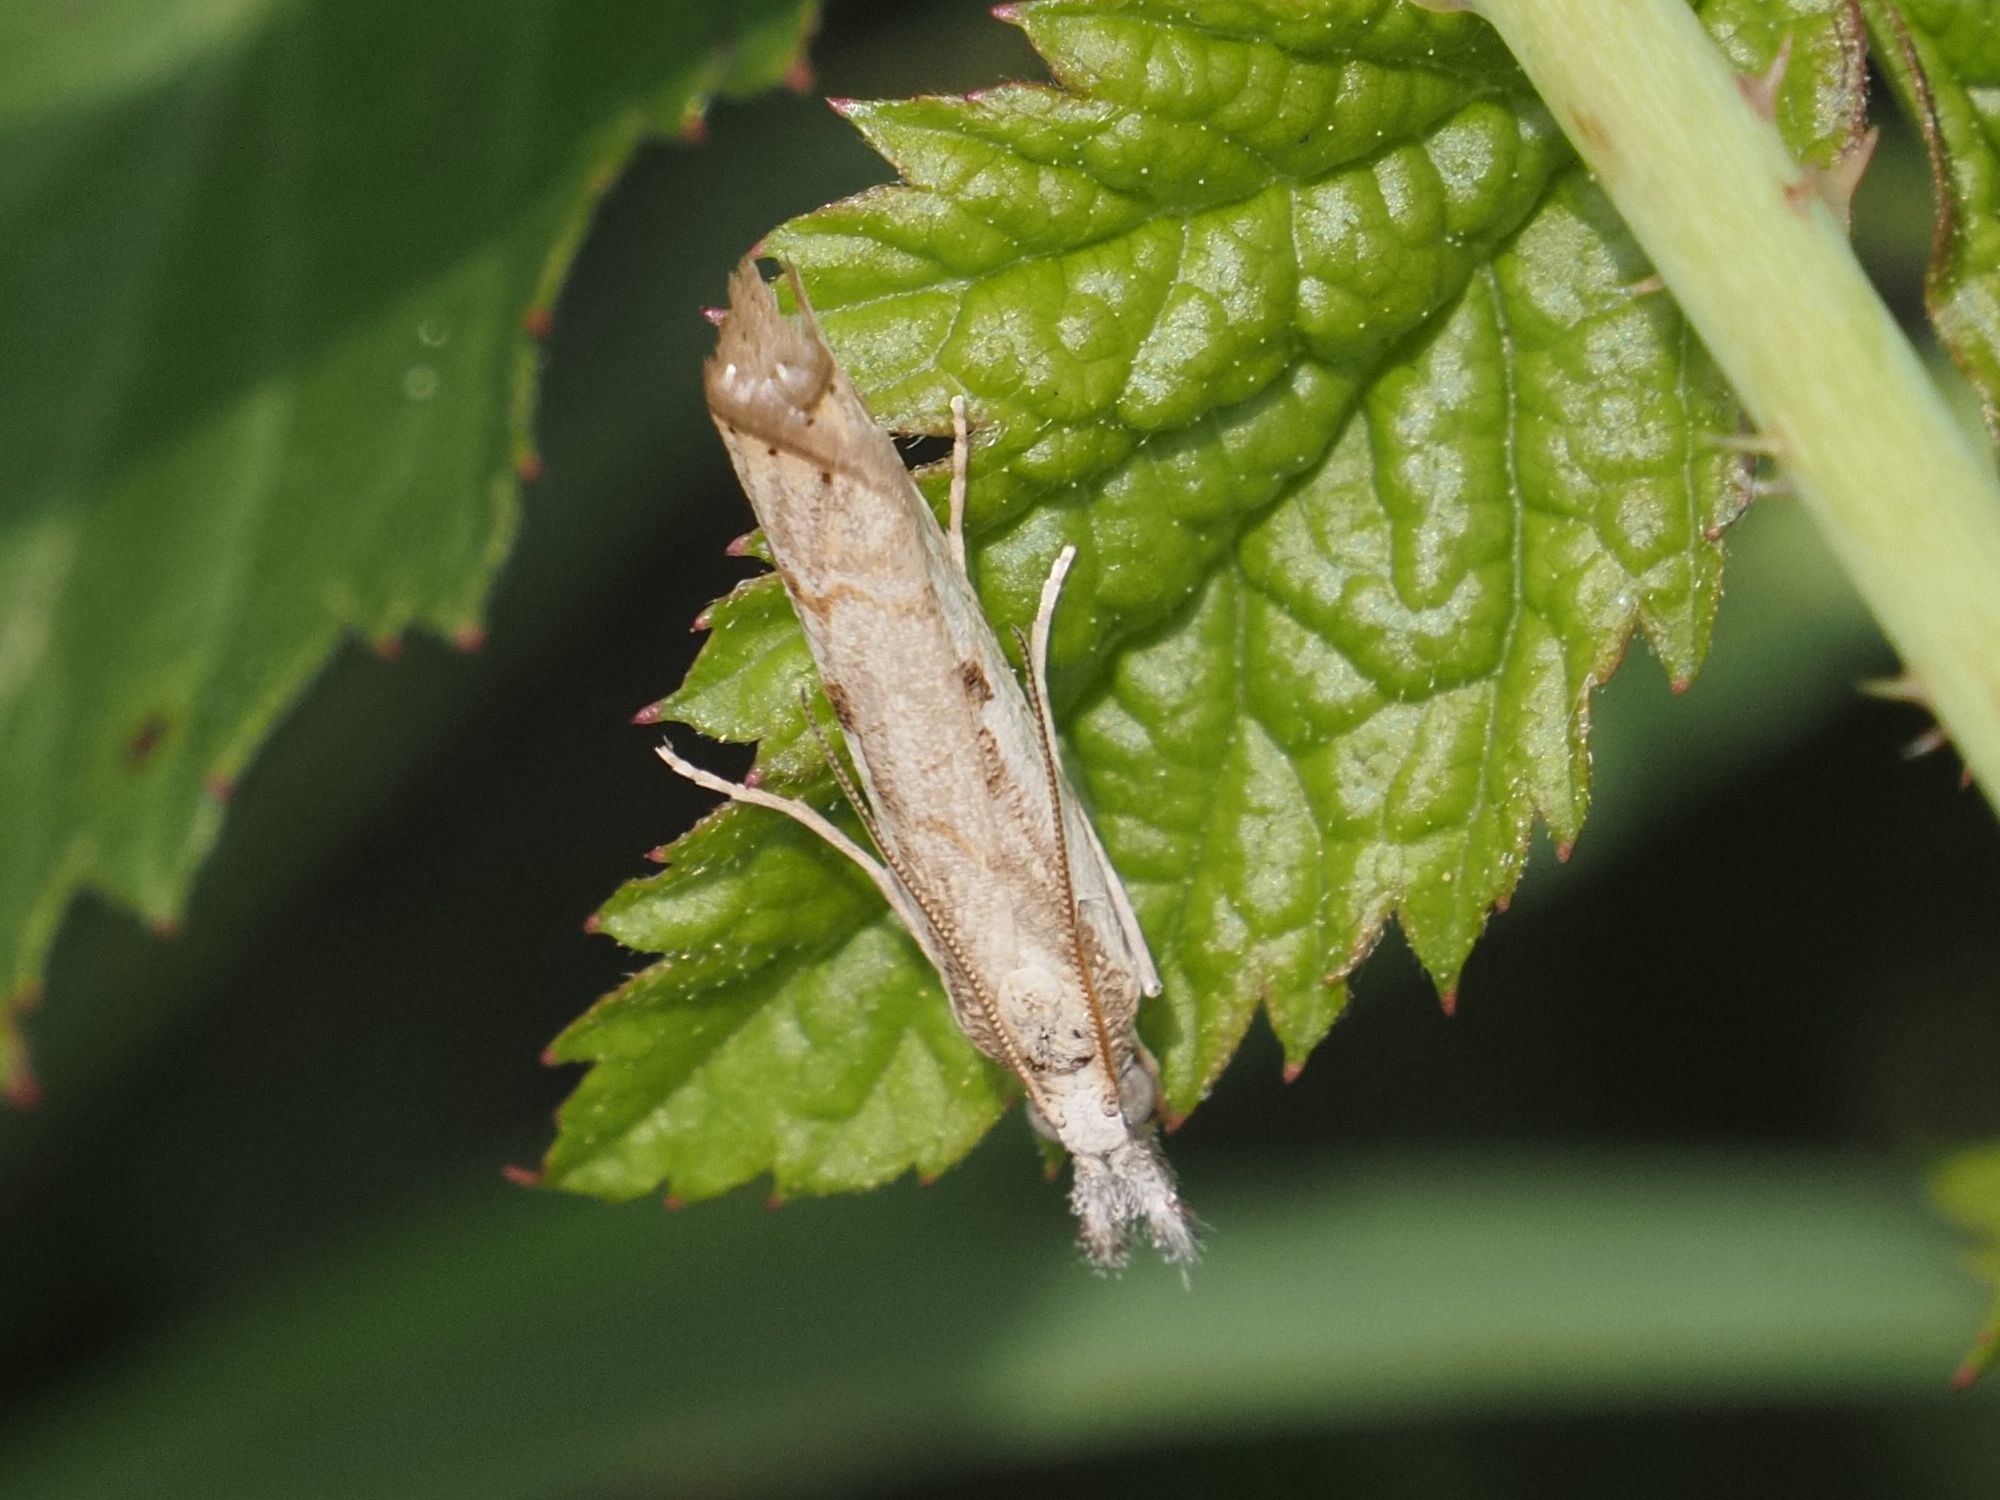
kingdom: Animalia
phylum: Arthropoda
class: Insecta
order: Lepidoptera
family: Crambidae
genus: Agriphila
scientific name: Agriphila geniculea
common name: Elbow-stripe grass-veneer
